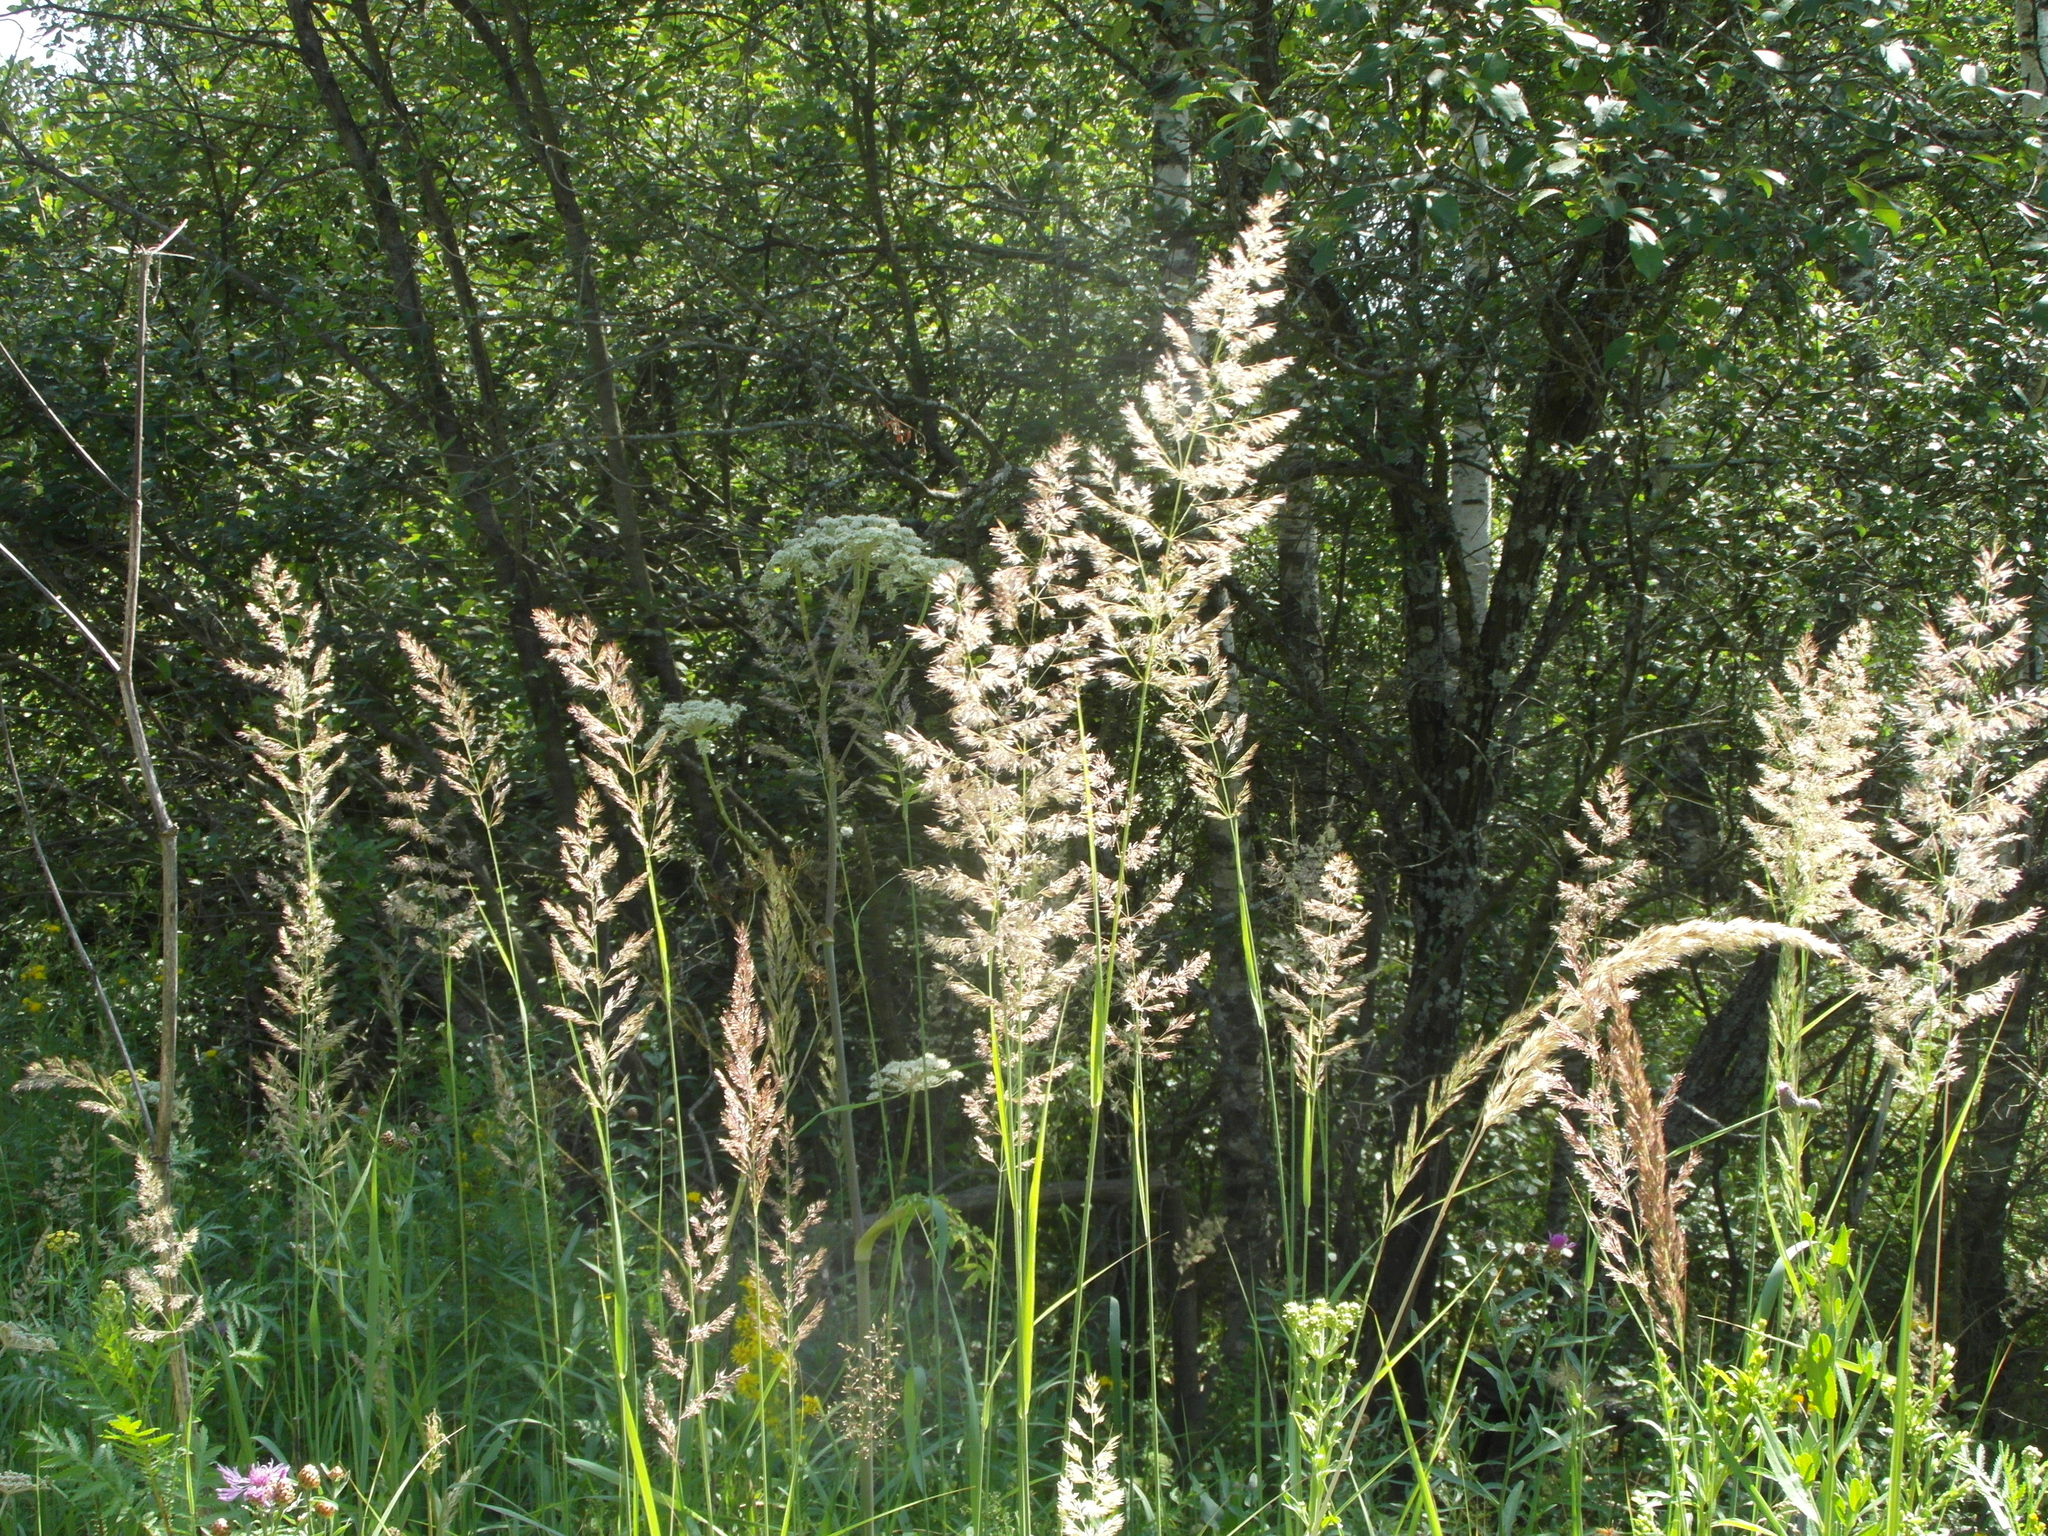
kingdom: Plantae
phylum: Tracheophyta
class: Liliopsida
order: Poales
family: Poaceae
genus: Calamagrostis
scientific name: Calamagrostis epigejos
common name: Wood small-reed
